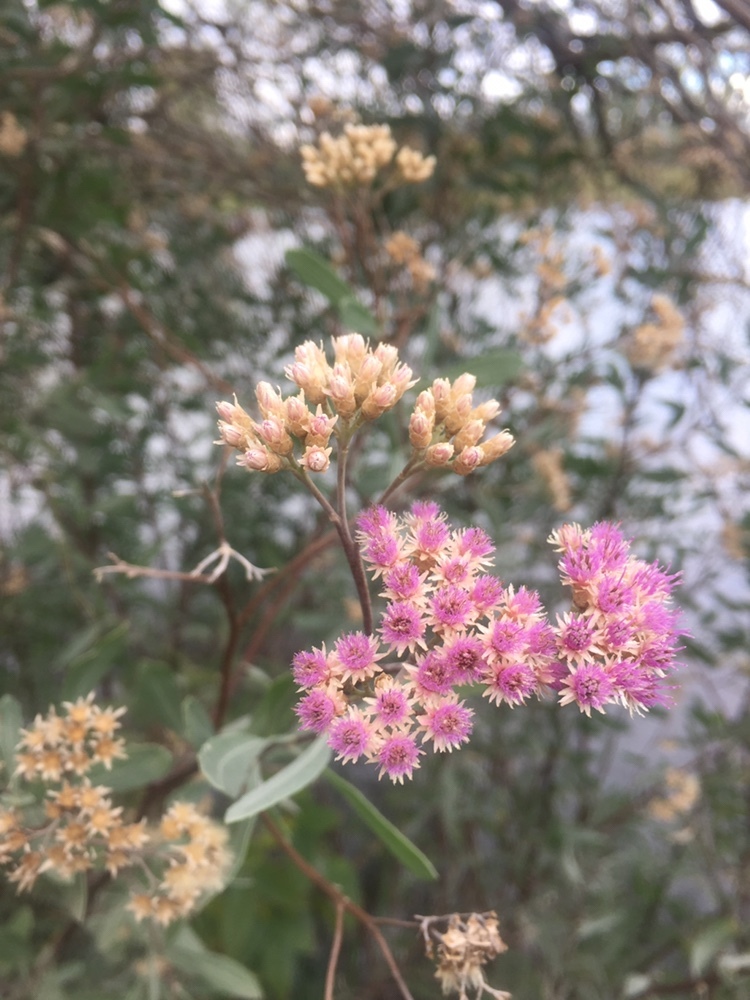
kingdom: Plantae
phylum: Tracheophyta
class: Magnoliopsida
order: Asterales
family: Asteraceae
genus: Tessaria
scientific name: Tessaria integrifolia
